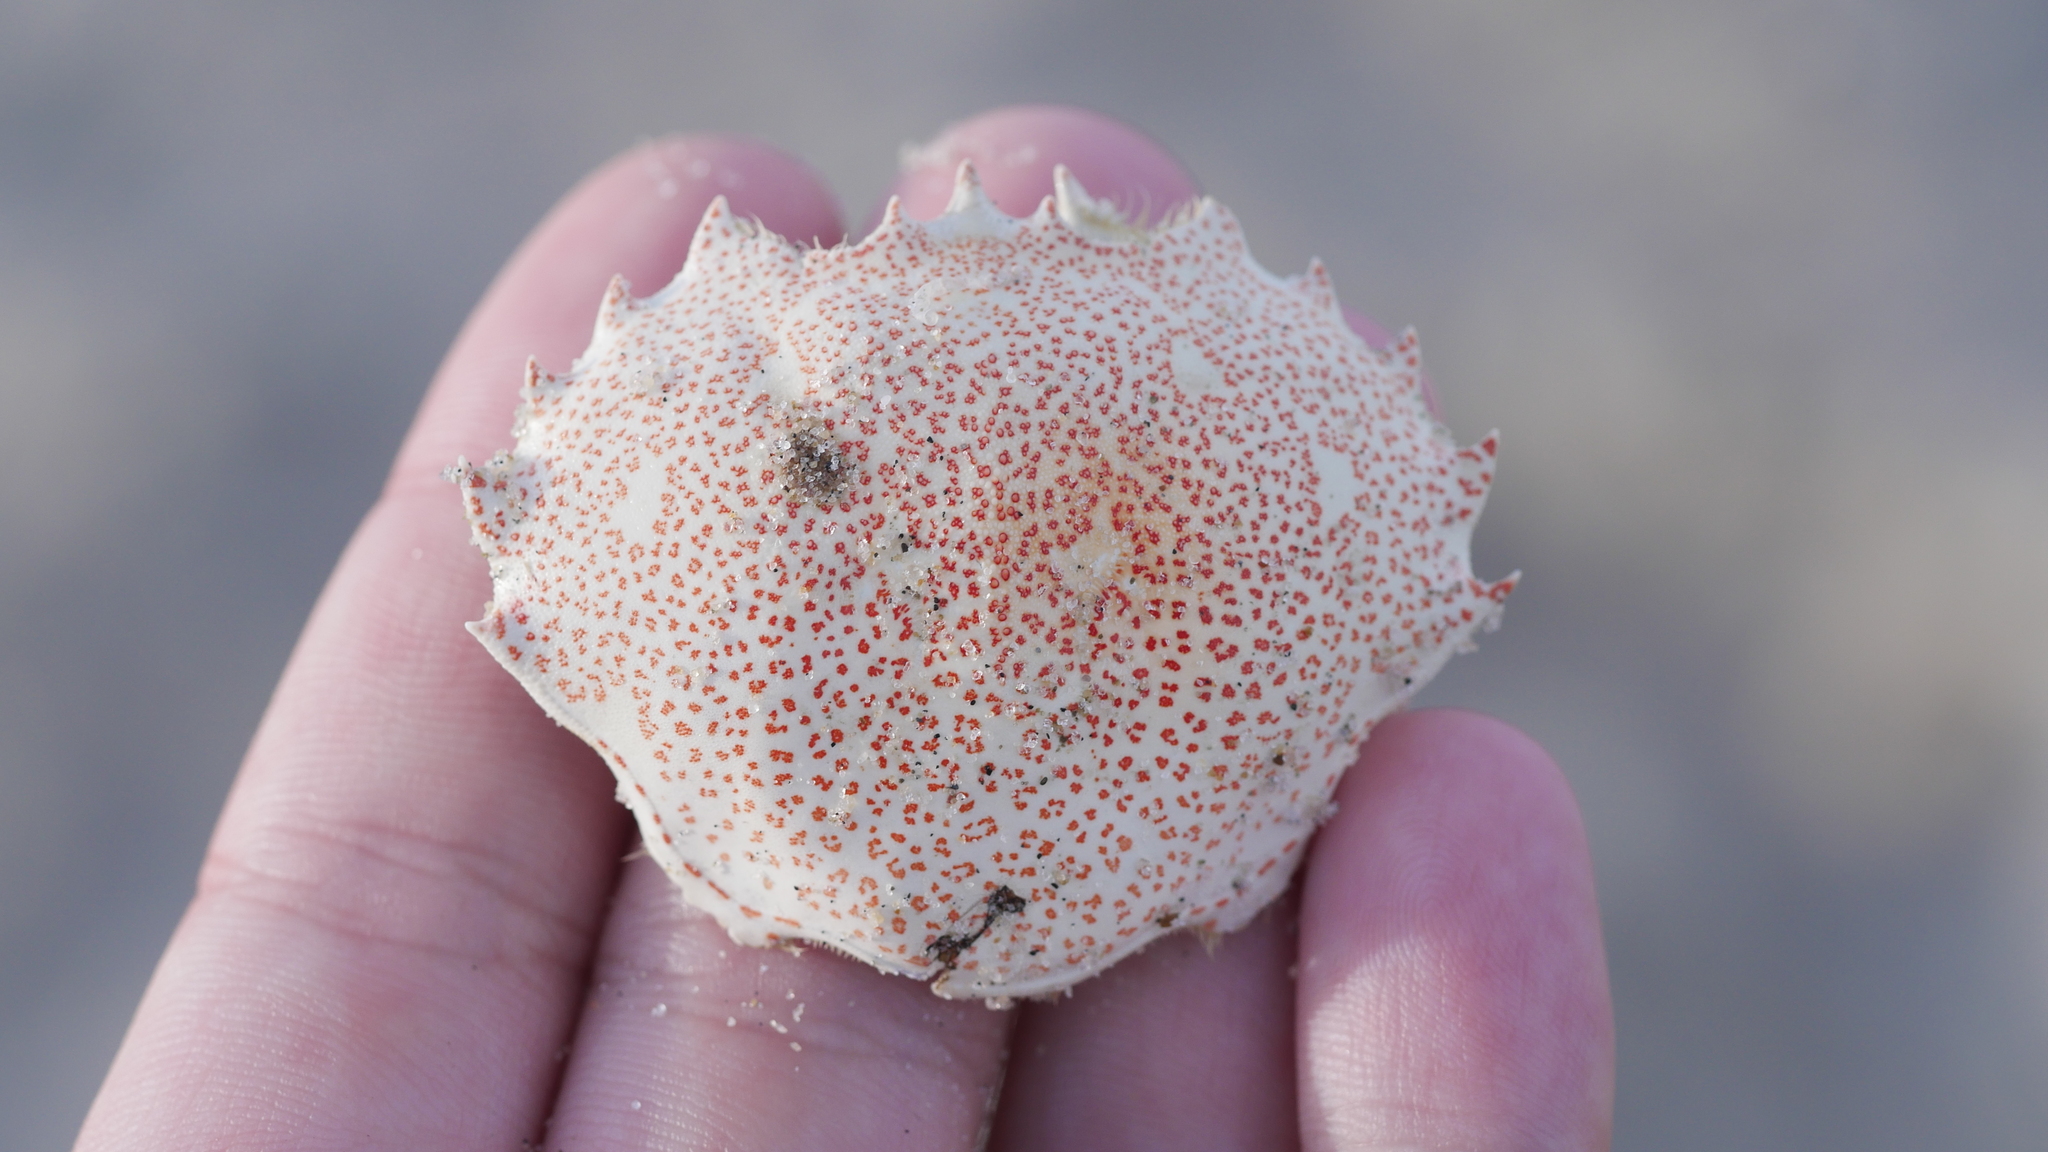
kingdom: Animalia
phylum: Arthropoda
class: Malacostraca
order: Decapoda
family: Ovalipidae
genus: Ovalipes
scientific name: Ovalipes ocellatus
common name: Lady crab
